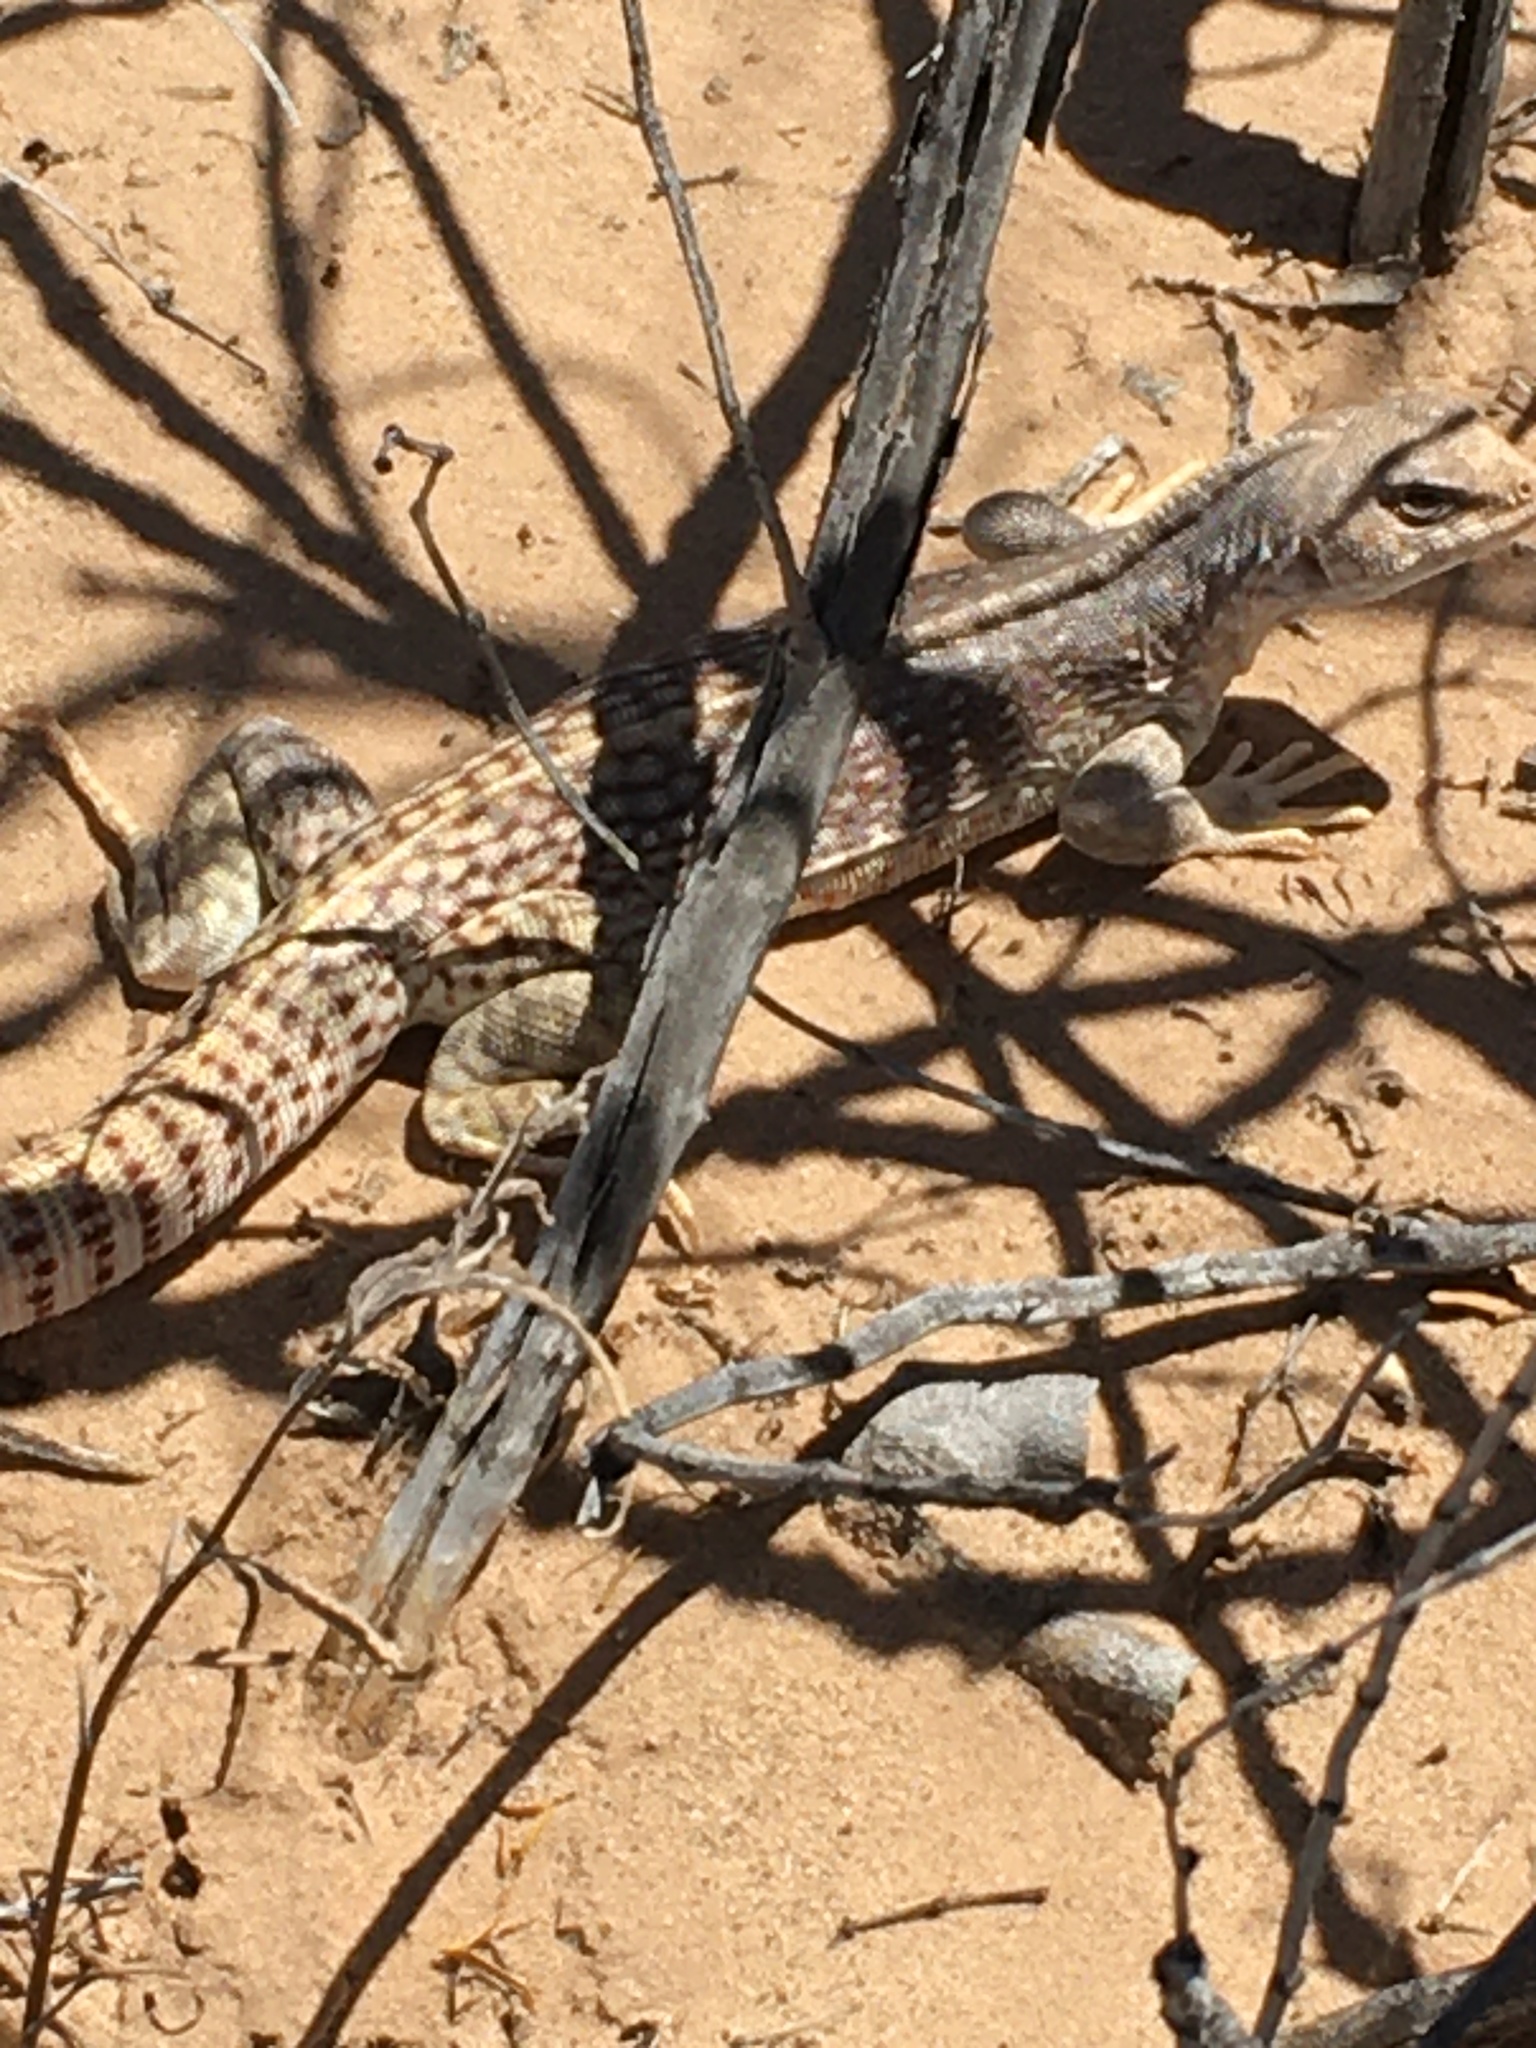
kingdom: Animalia
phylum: Chordata
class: Squamata
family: Iguanidae
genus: Dipsosaurus
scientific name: Dipsosaurus dorsalis
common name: Desert iguana
